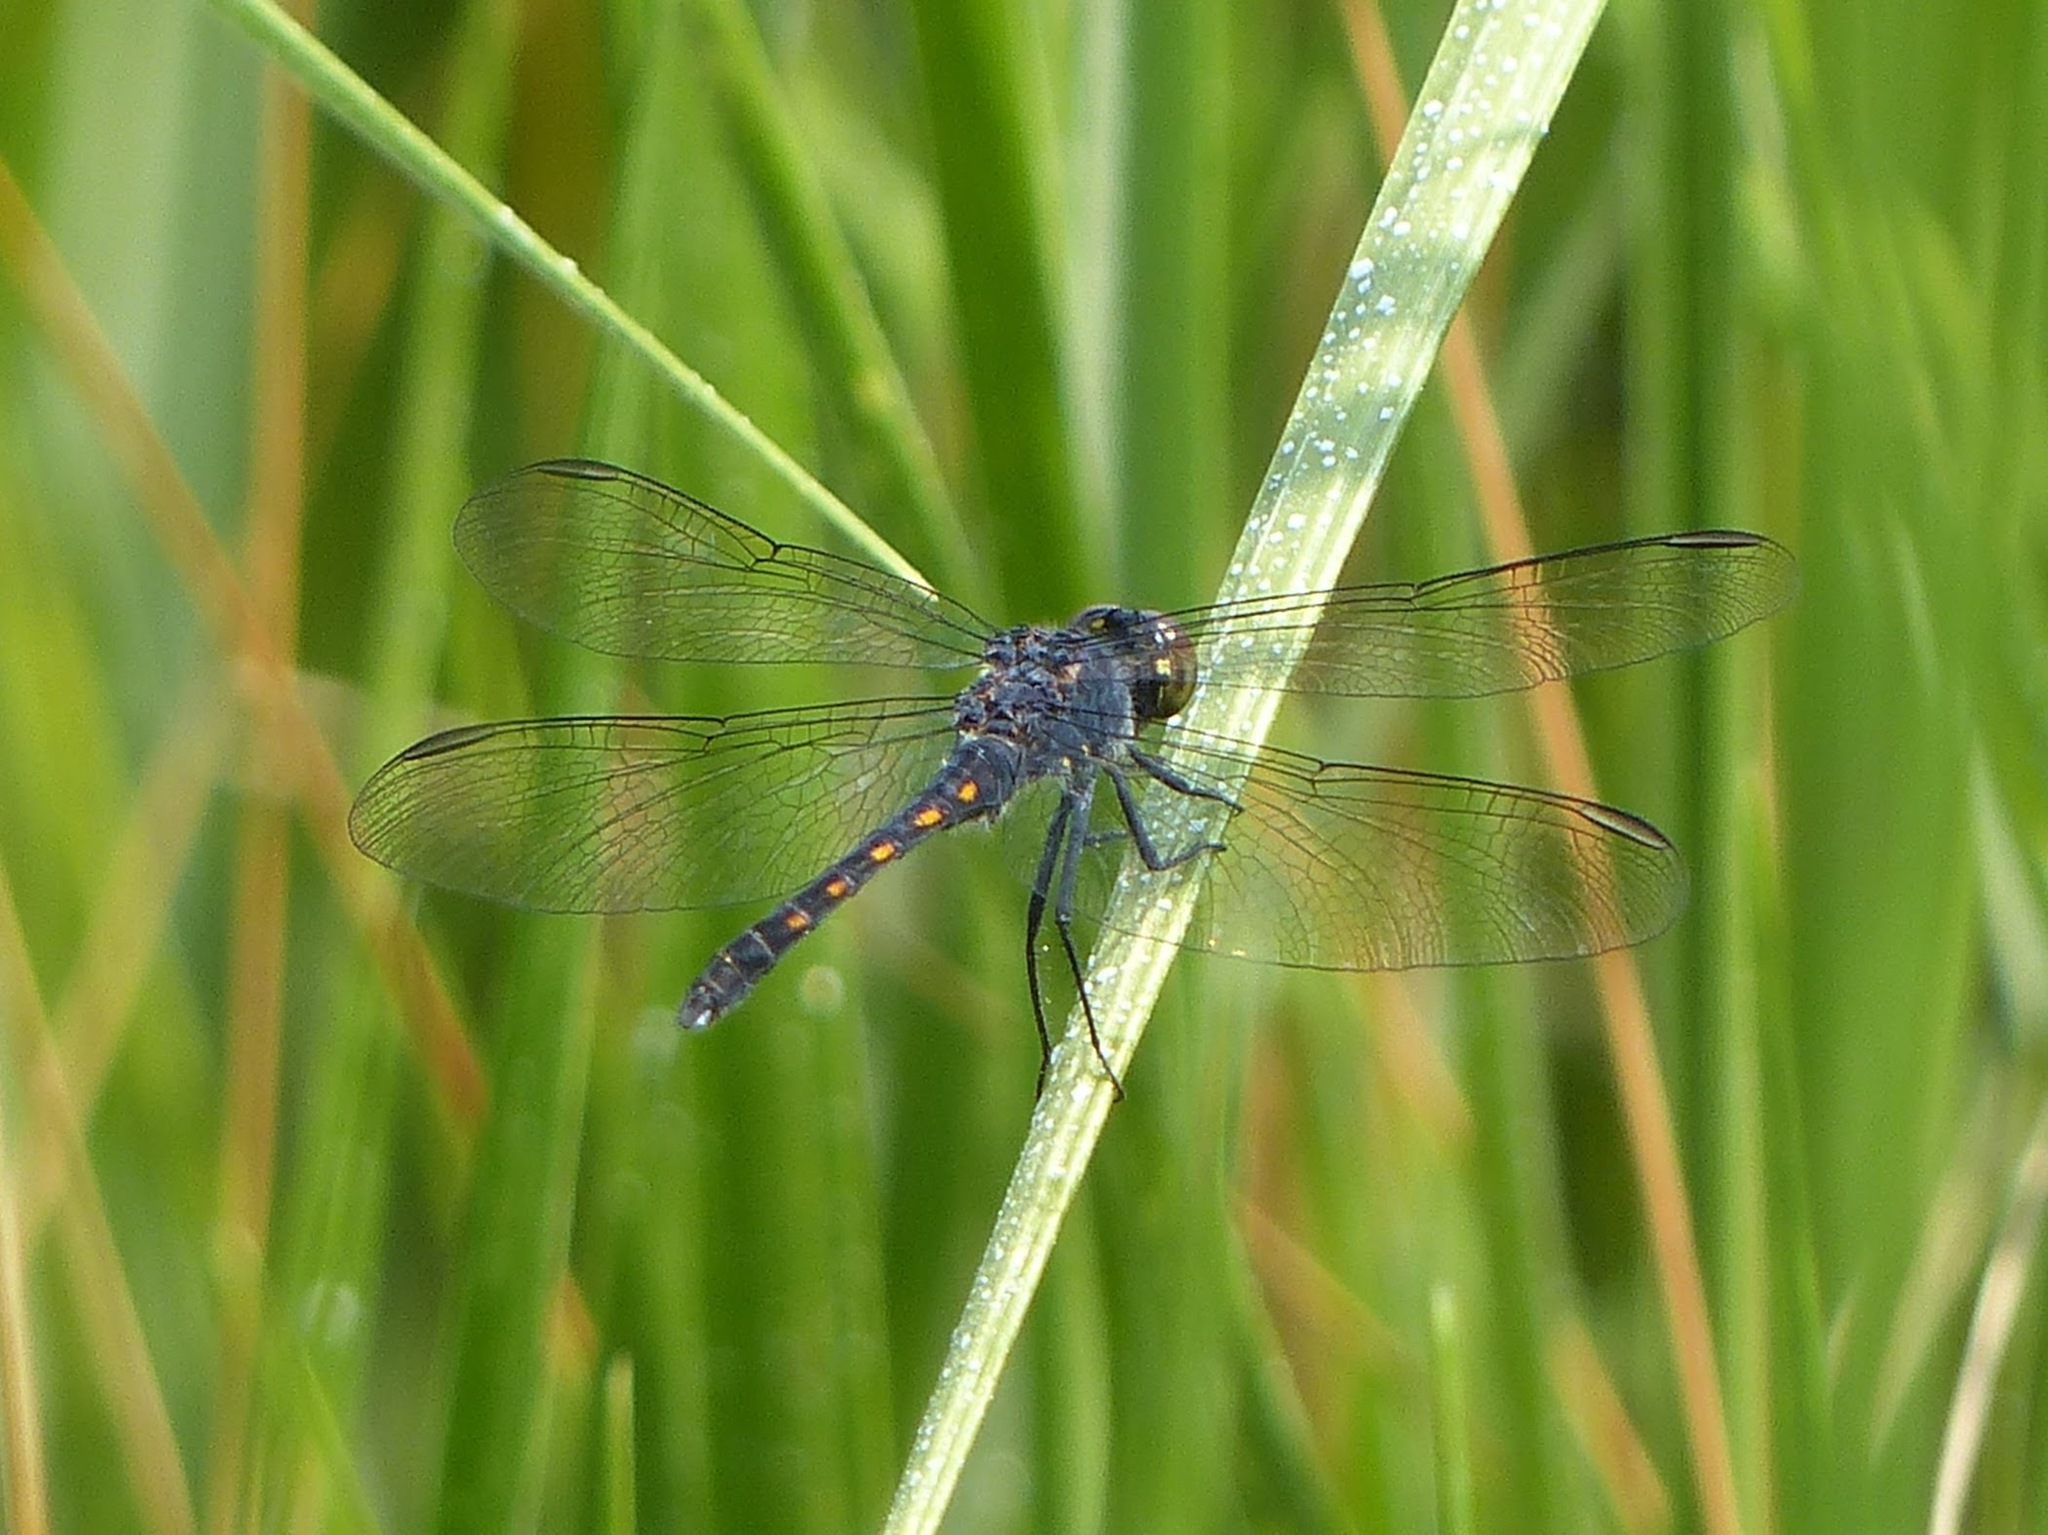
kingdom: Animalia
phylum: Arthropoda
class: Insecta
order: Odonata
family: Libellulidae
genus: Erythrodiplax
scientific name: Erythrodiplax berenice
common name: Seaside dragonlet
